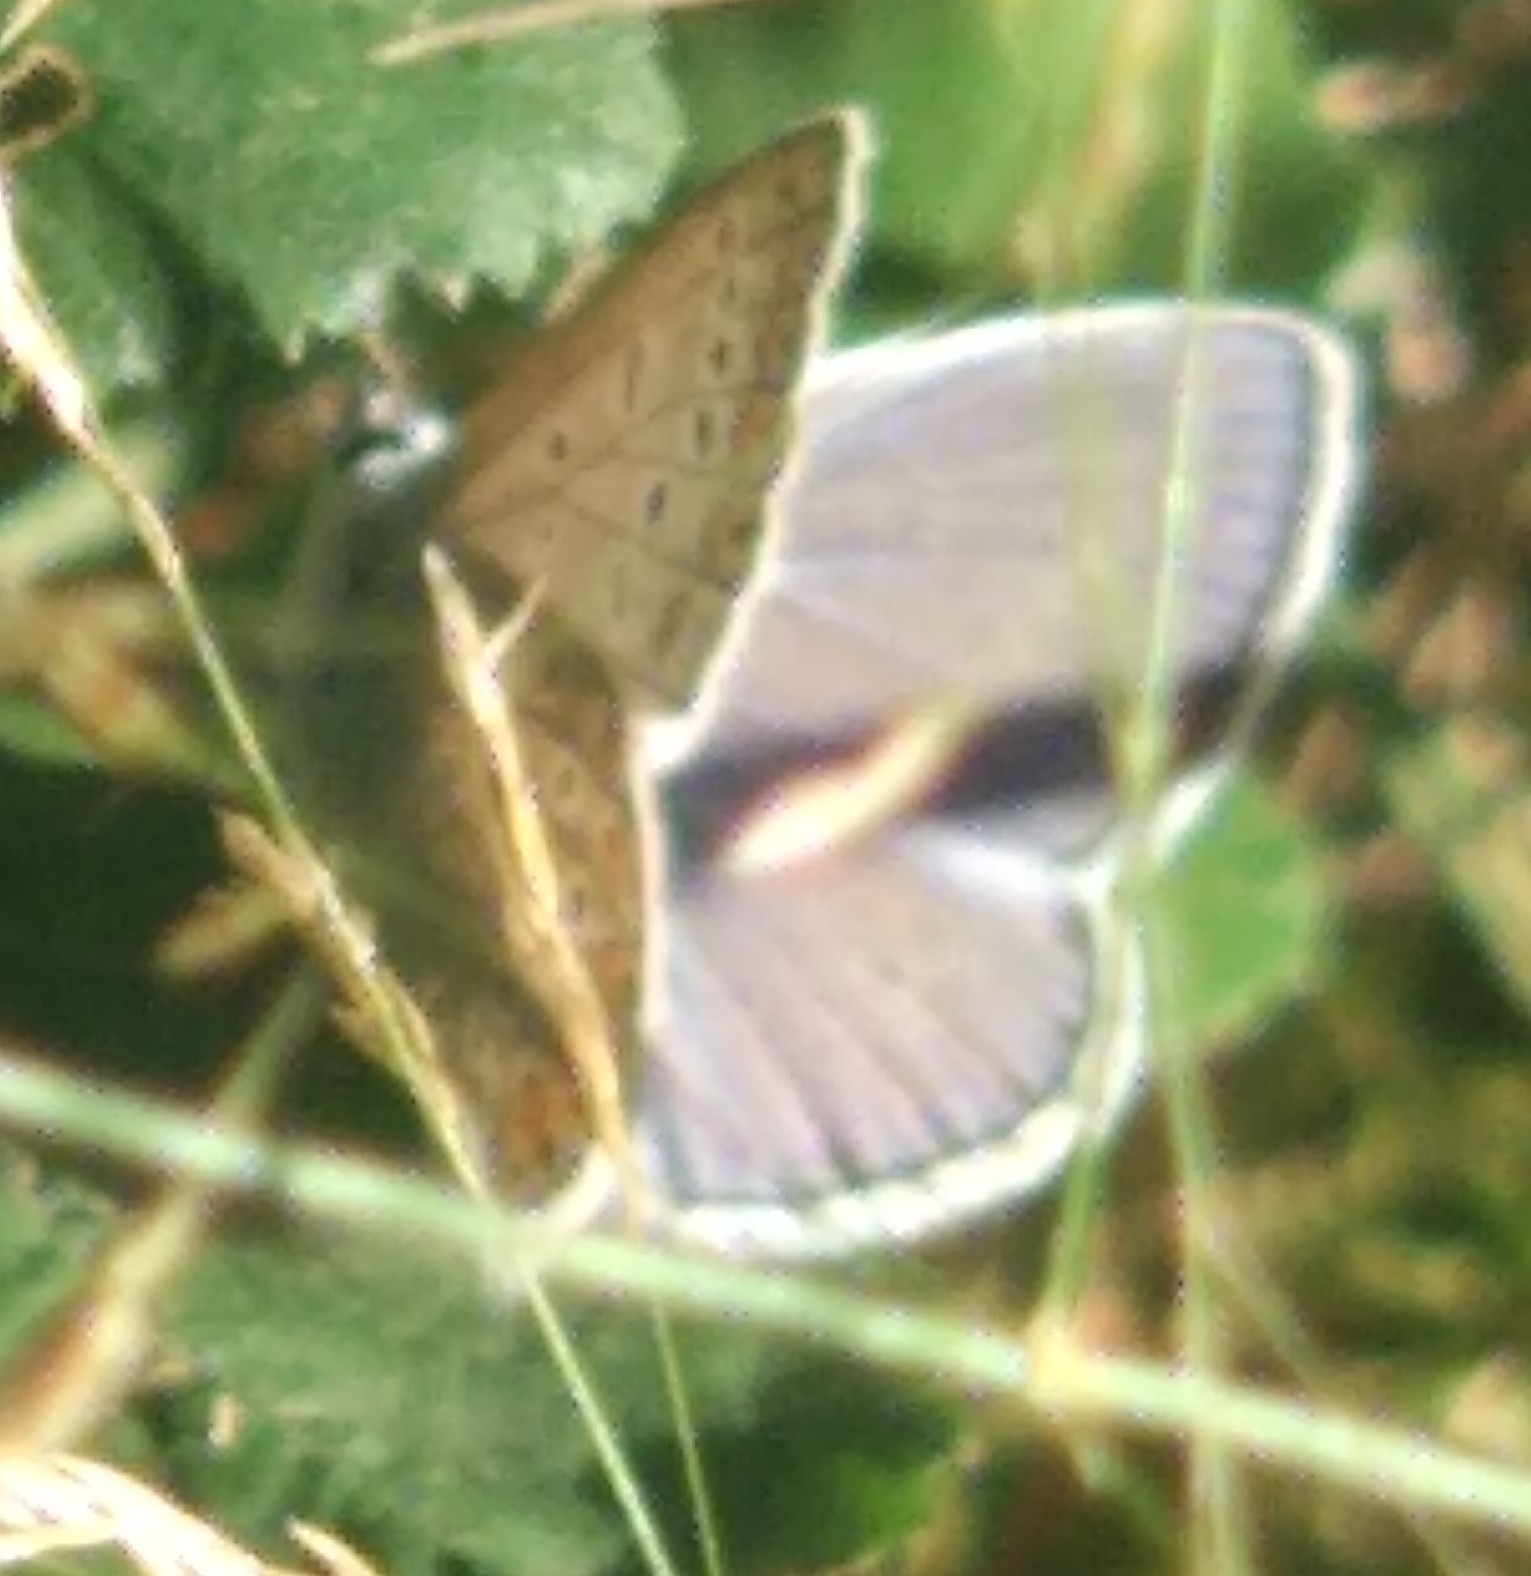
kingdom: Animalia
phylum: Arthropoda
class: Insecta
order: Lepidoptera
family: Lycaenidae
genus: Polyommatus
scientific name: Polyommatus icarus
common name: Common blue
